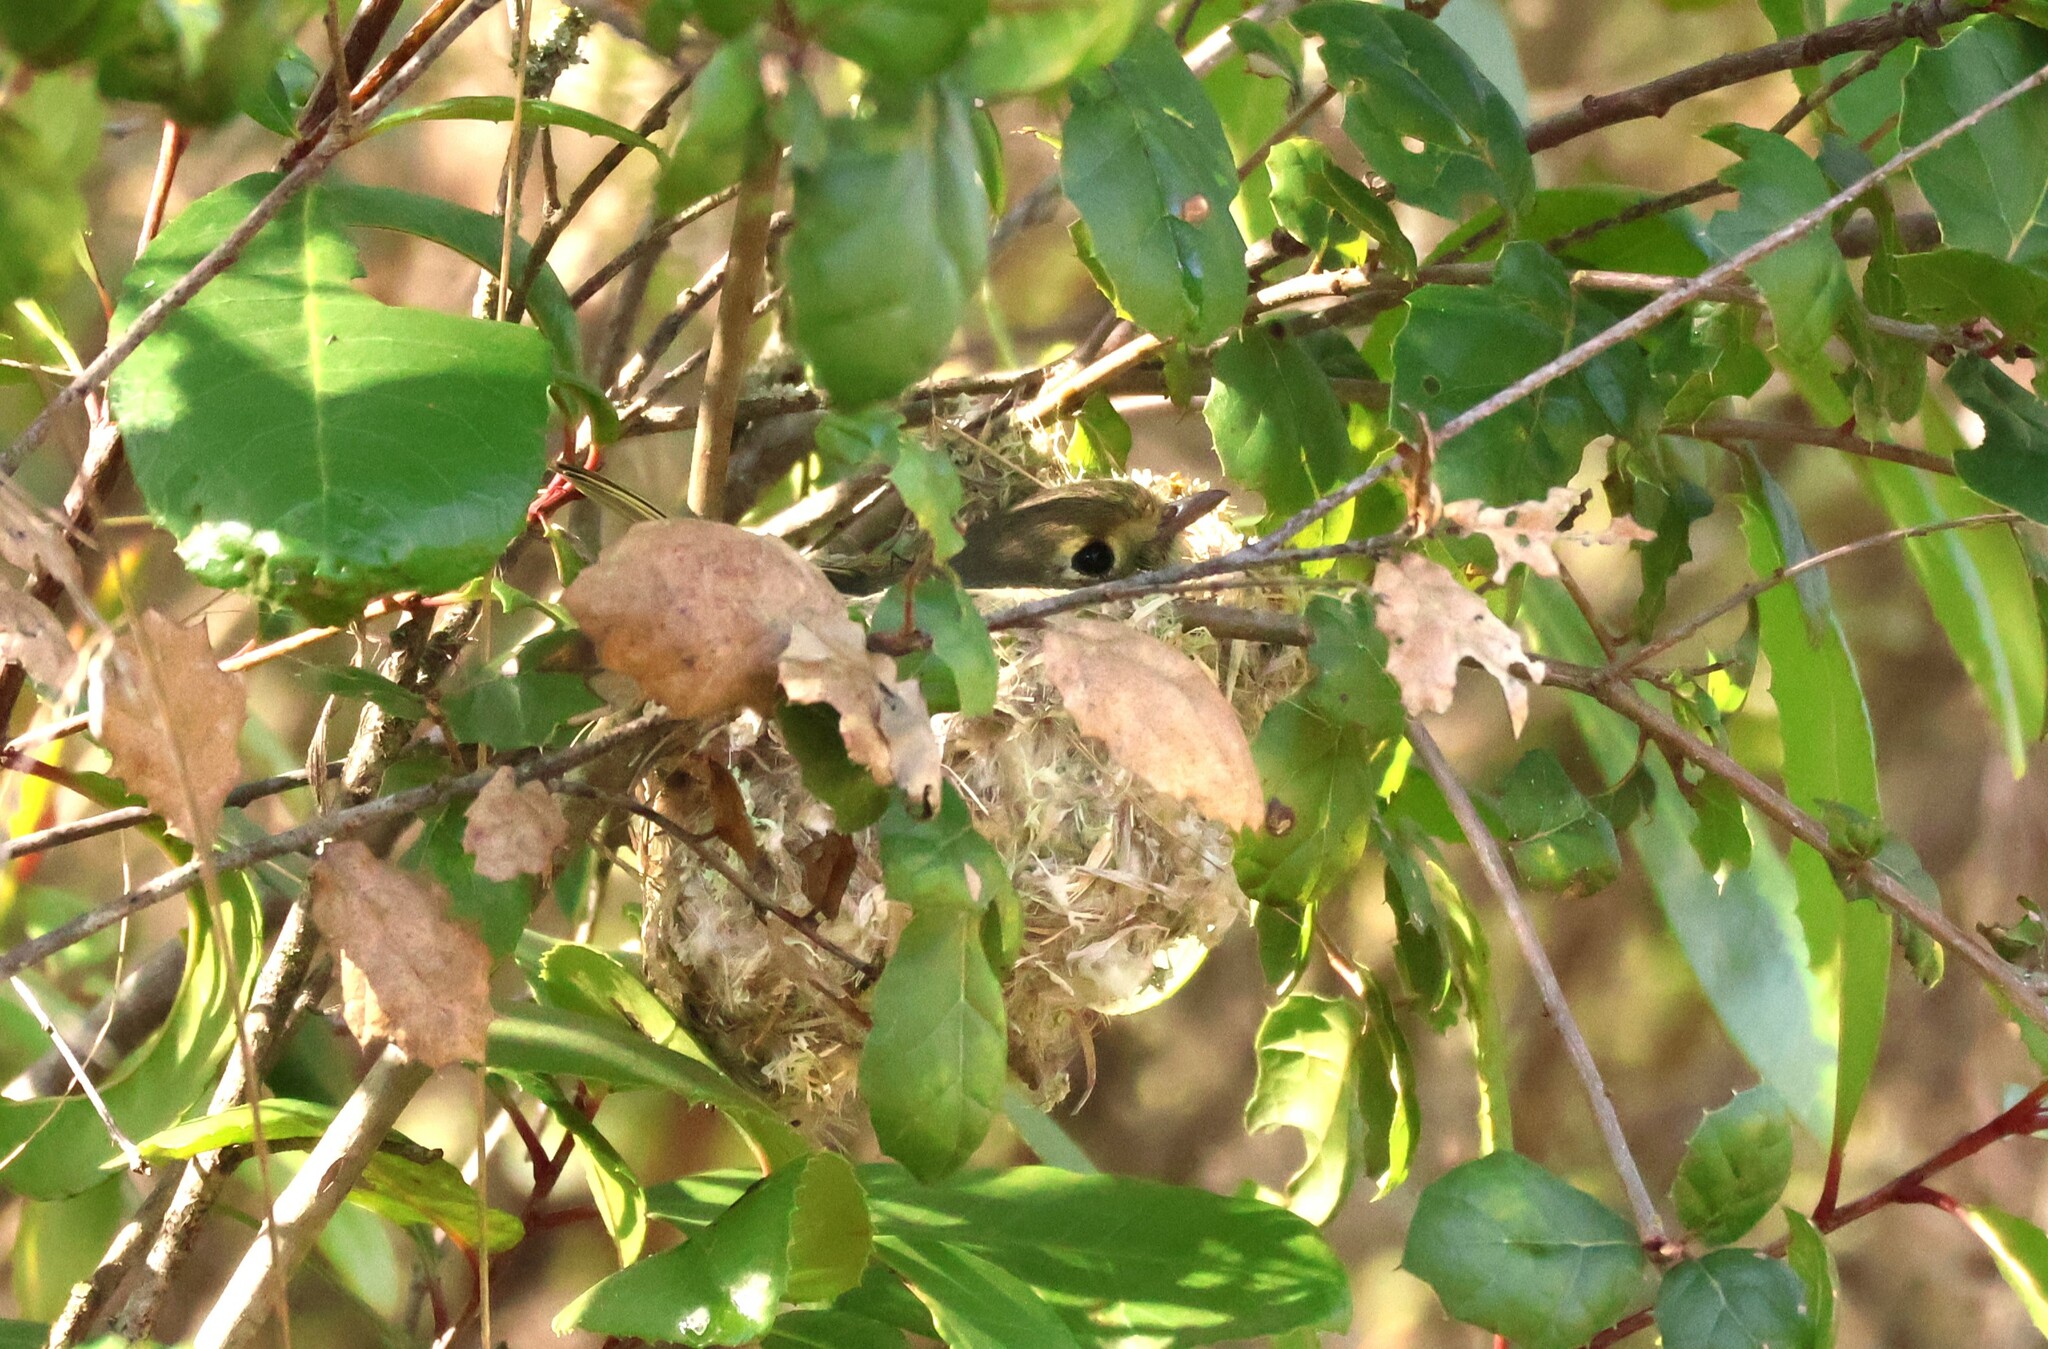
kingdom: Animalia
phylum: Chordata
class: Aves
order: Passeriformes
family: Vireonidae
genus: Vireo
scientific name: Vireo huttoni
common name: Hutton's vireo
